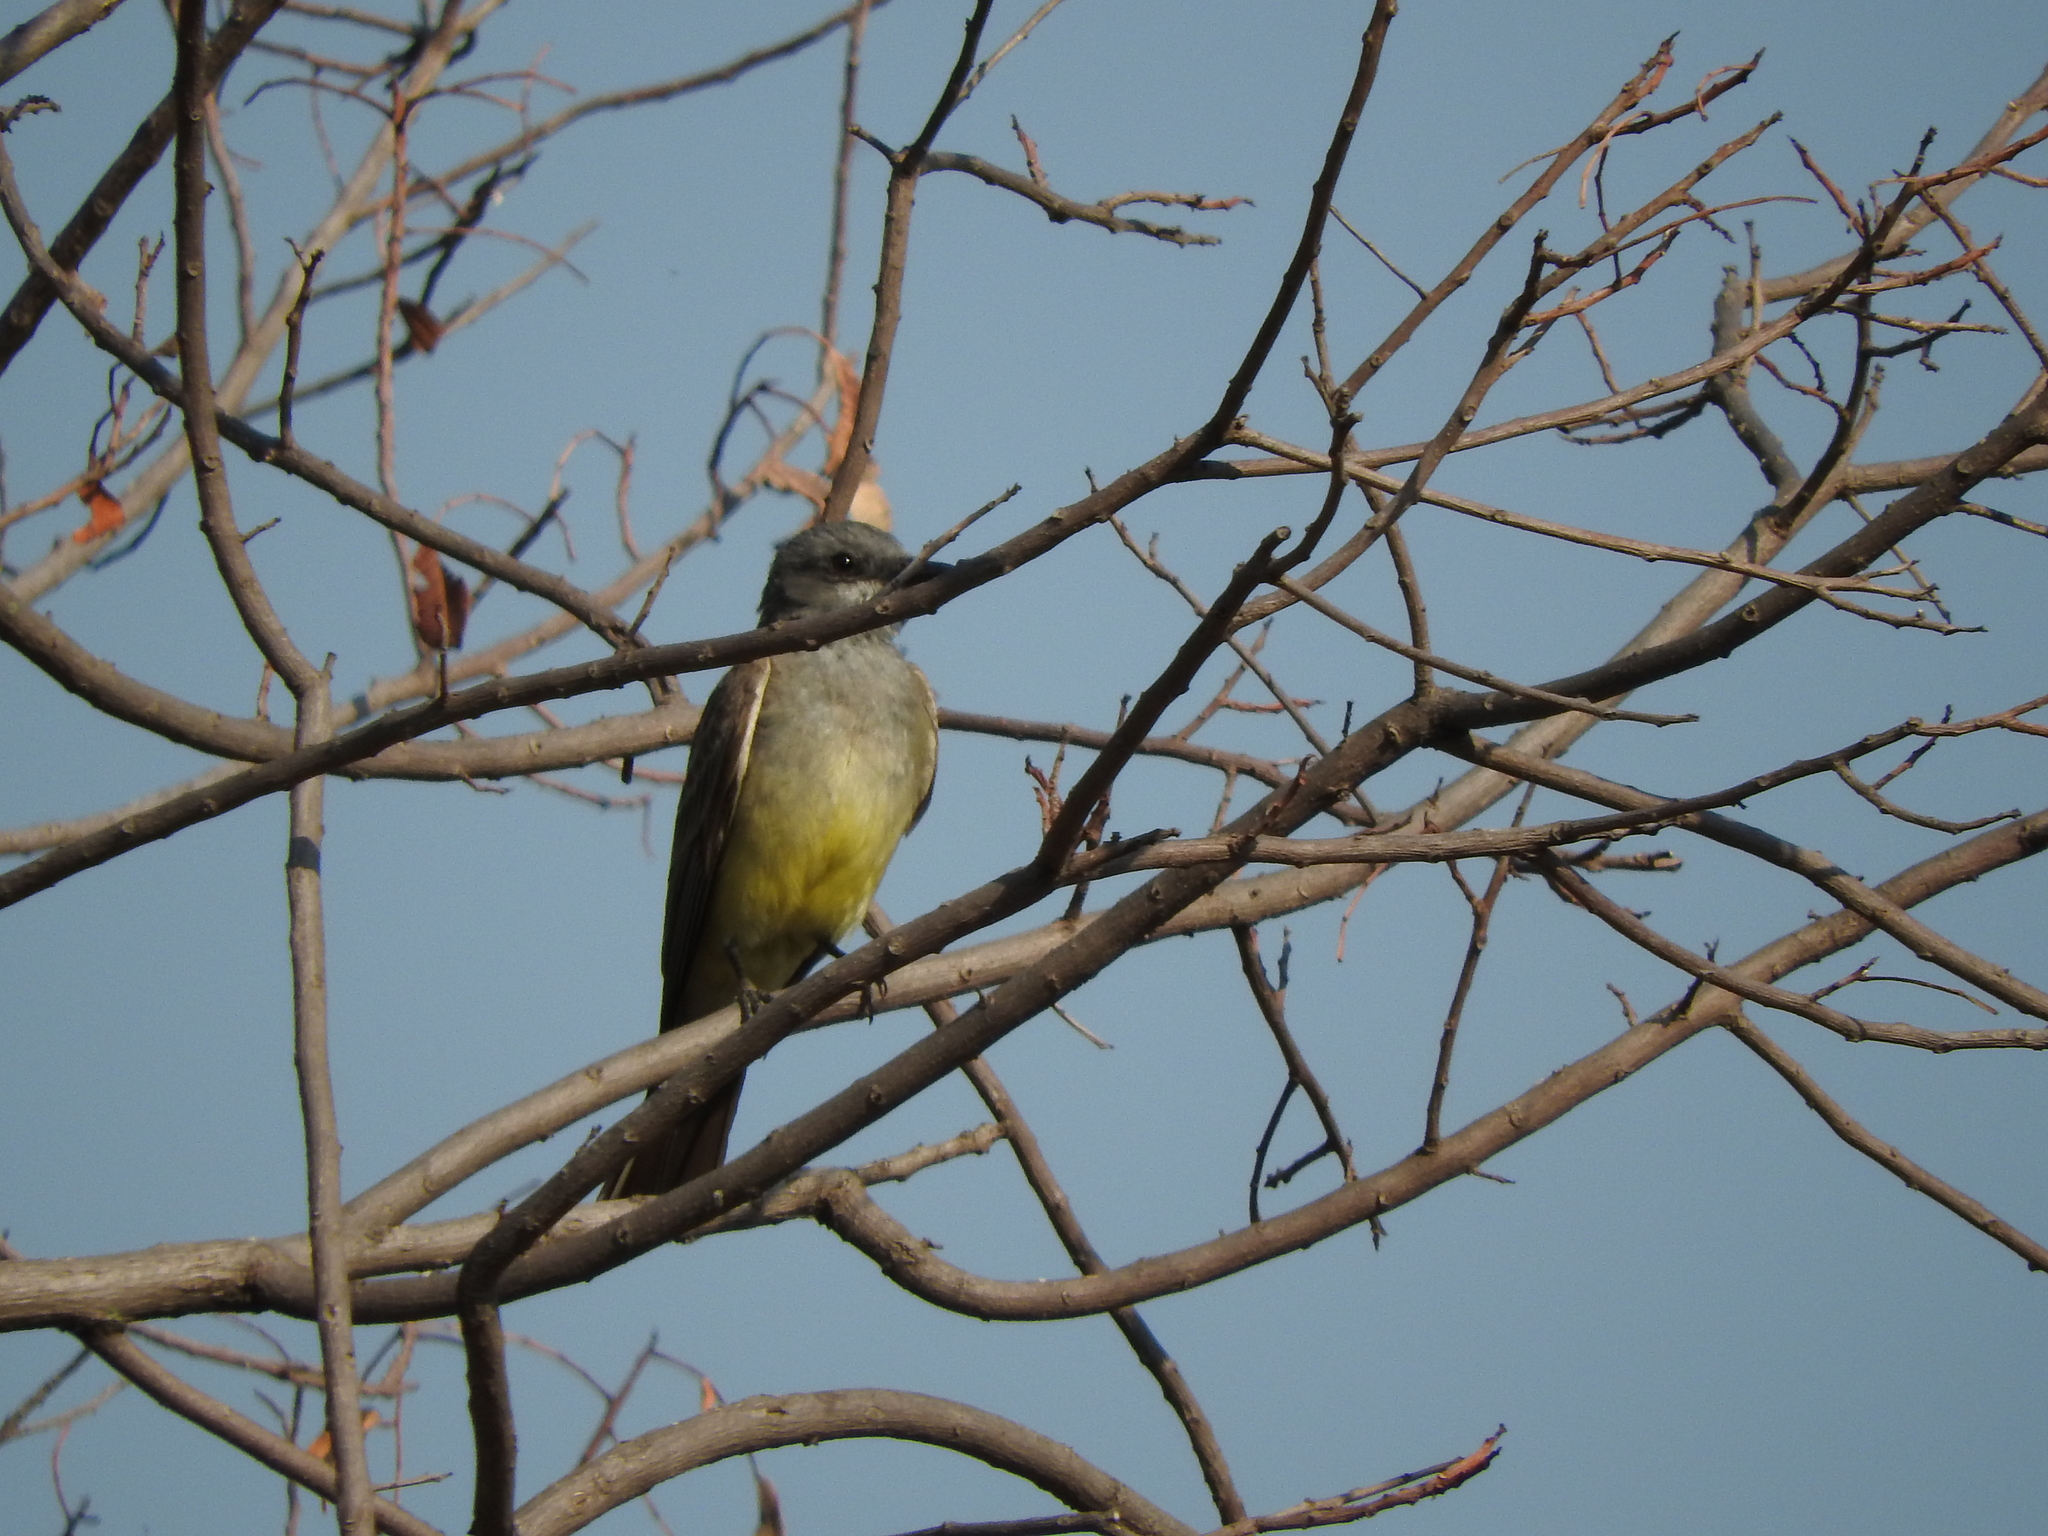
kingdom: Animalia
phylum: Chordata
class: Aves
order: Passeriformes
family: Tyrannidae
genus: Tyrannus
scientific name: Tyrannus vociferans
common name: Cassin's kingbird
